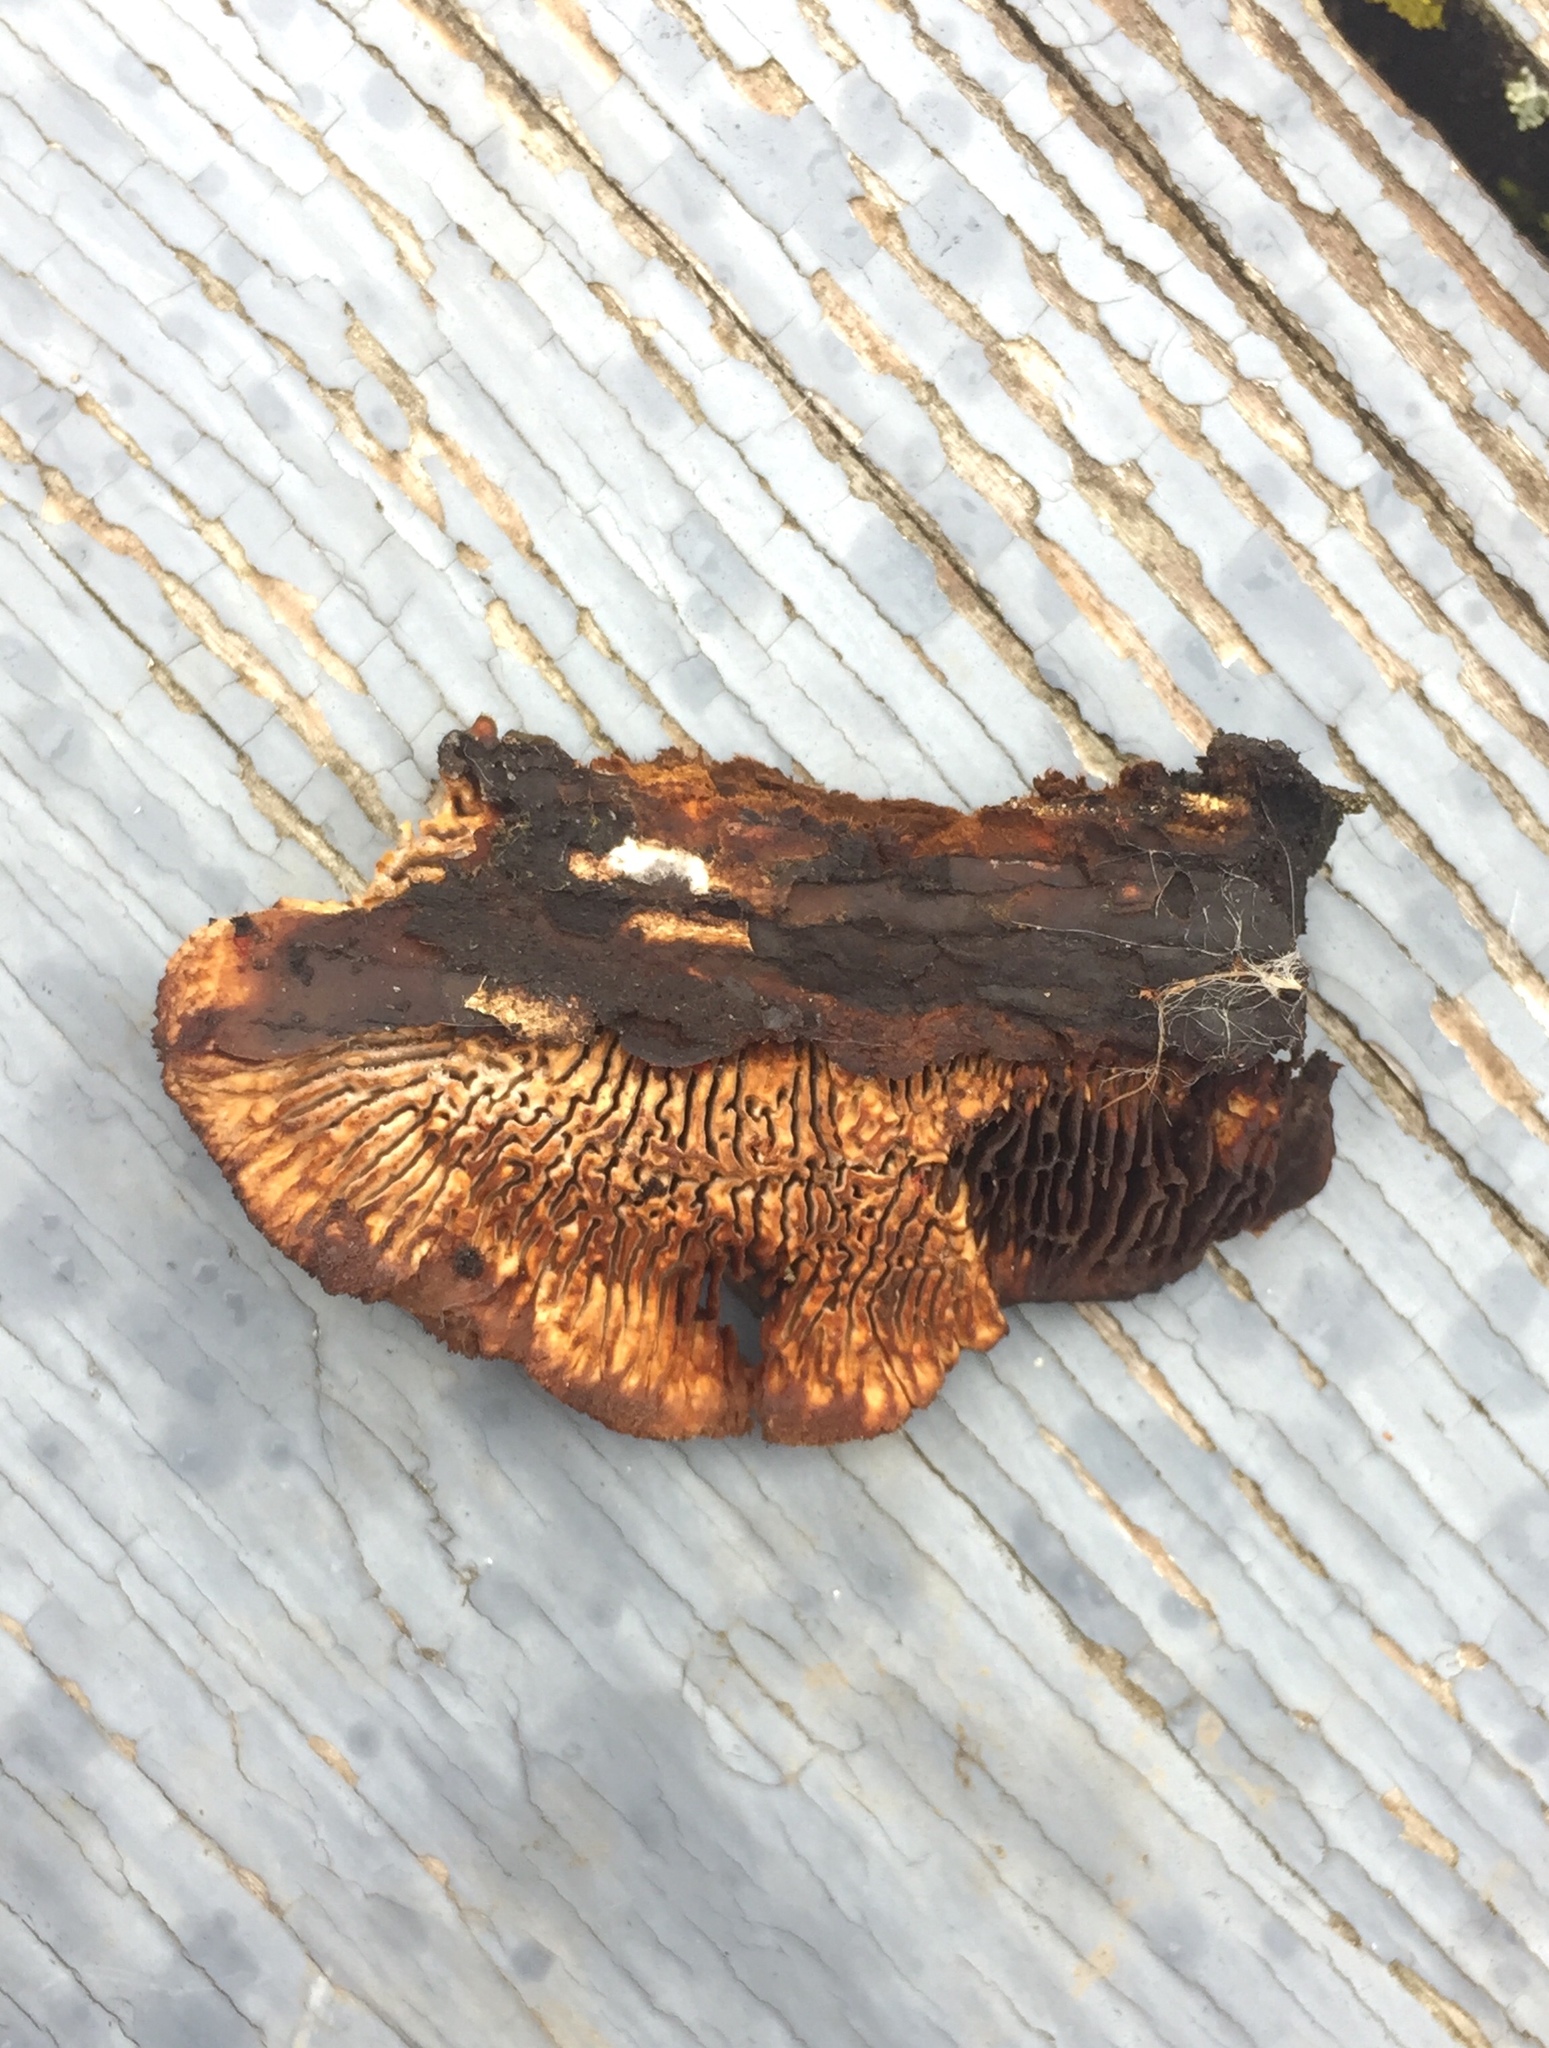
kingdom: Fungi
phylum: Basidiomycota
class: Agaricomycetes
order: Gloeophyllales
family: Gloeophyllaceae
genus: Gloeophyllum
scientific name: Gloeophyllum sepiarium
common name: Conifer mazegill
